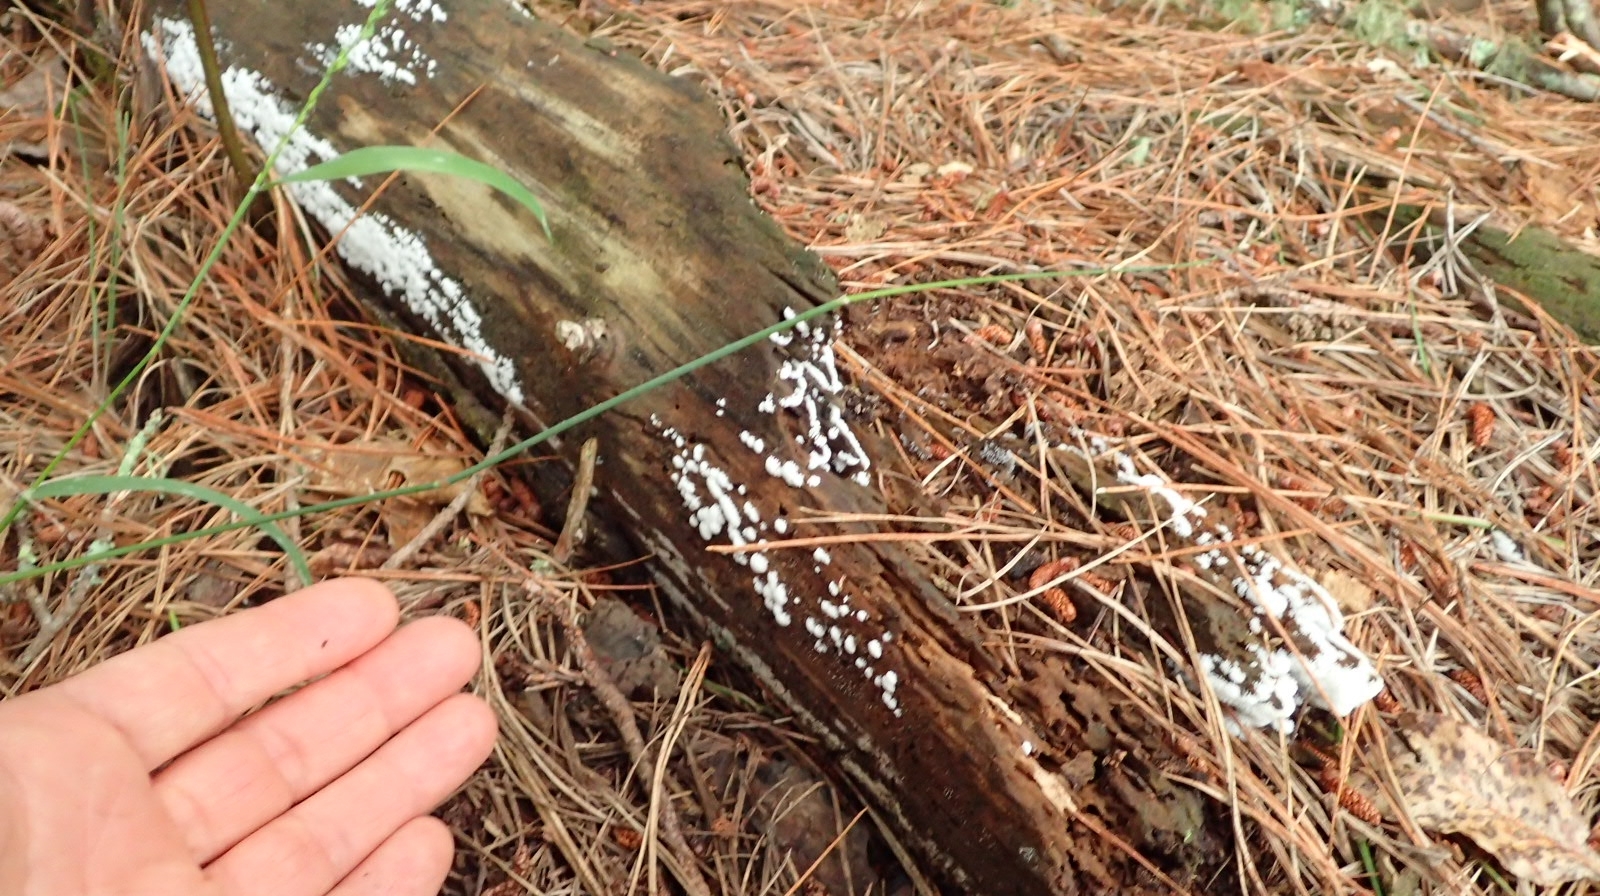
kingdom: Protozoa
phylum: Mycetozoa
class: Protosteliomycetes
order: Ceratiomyxales
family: Ceratiomyxaceae
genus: Ceratiomyxa
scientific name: Ceratiomyxa fruticulosa
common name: Honeycomb coral slime mold
